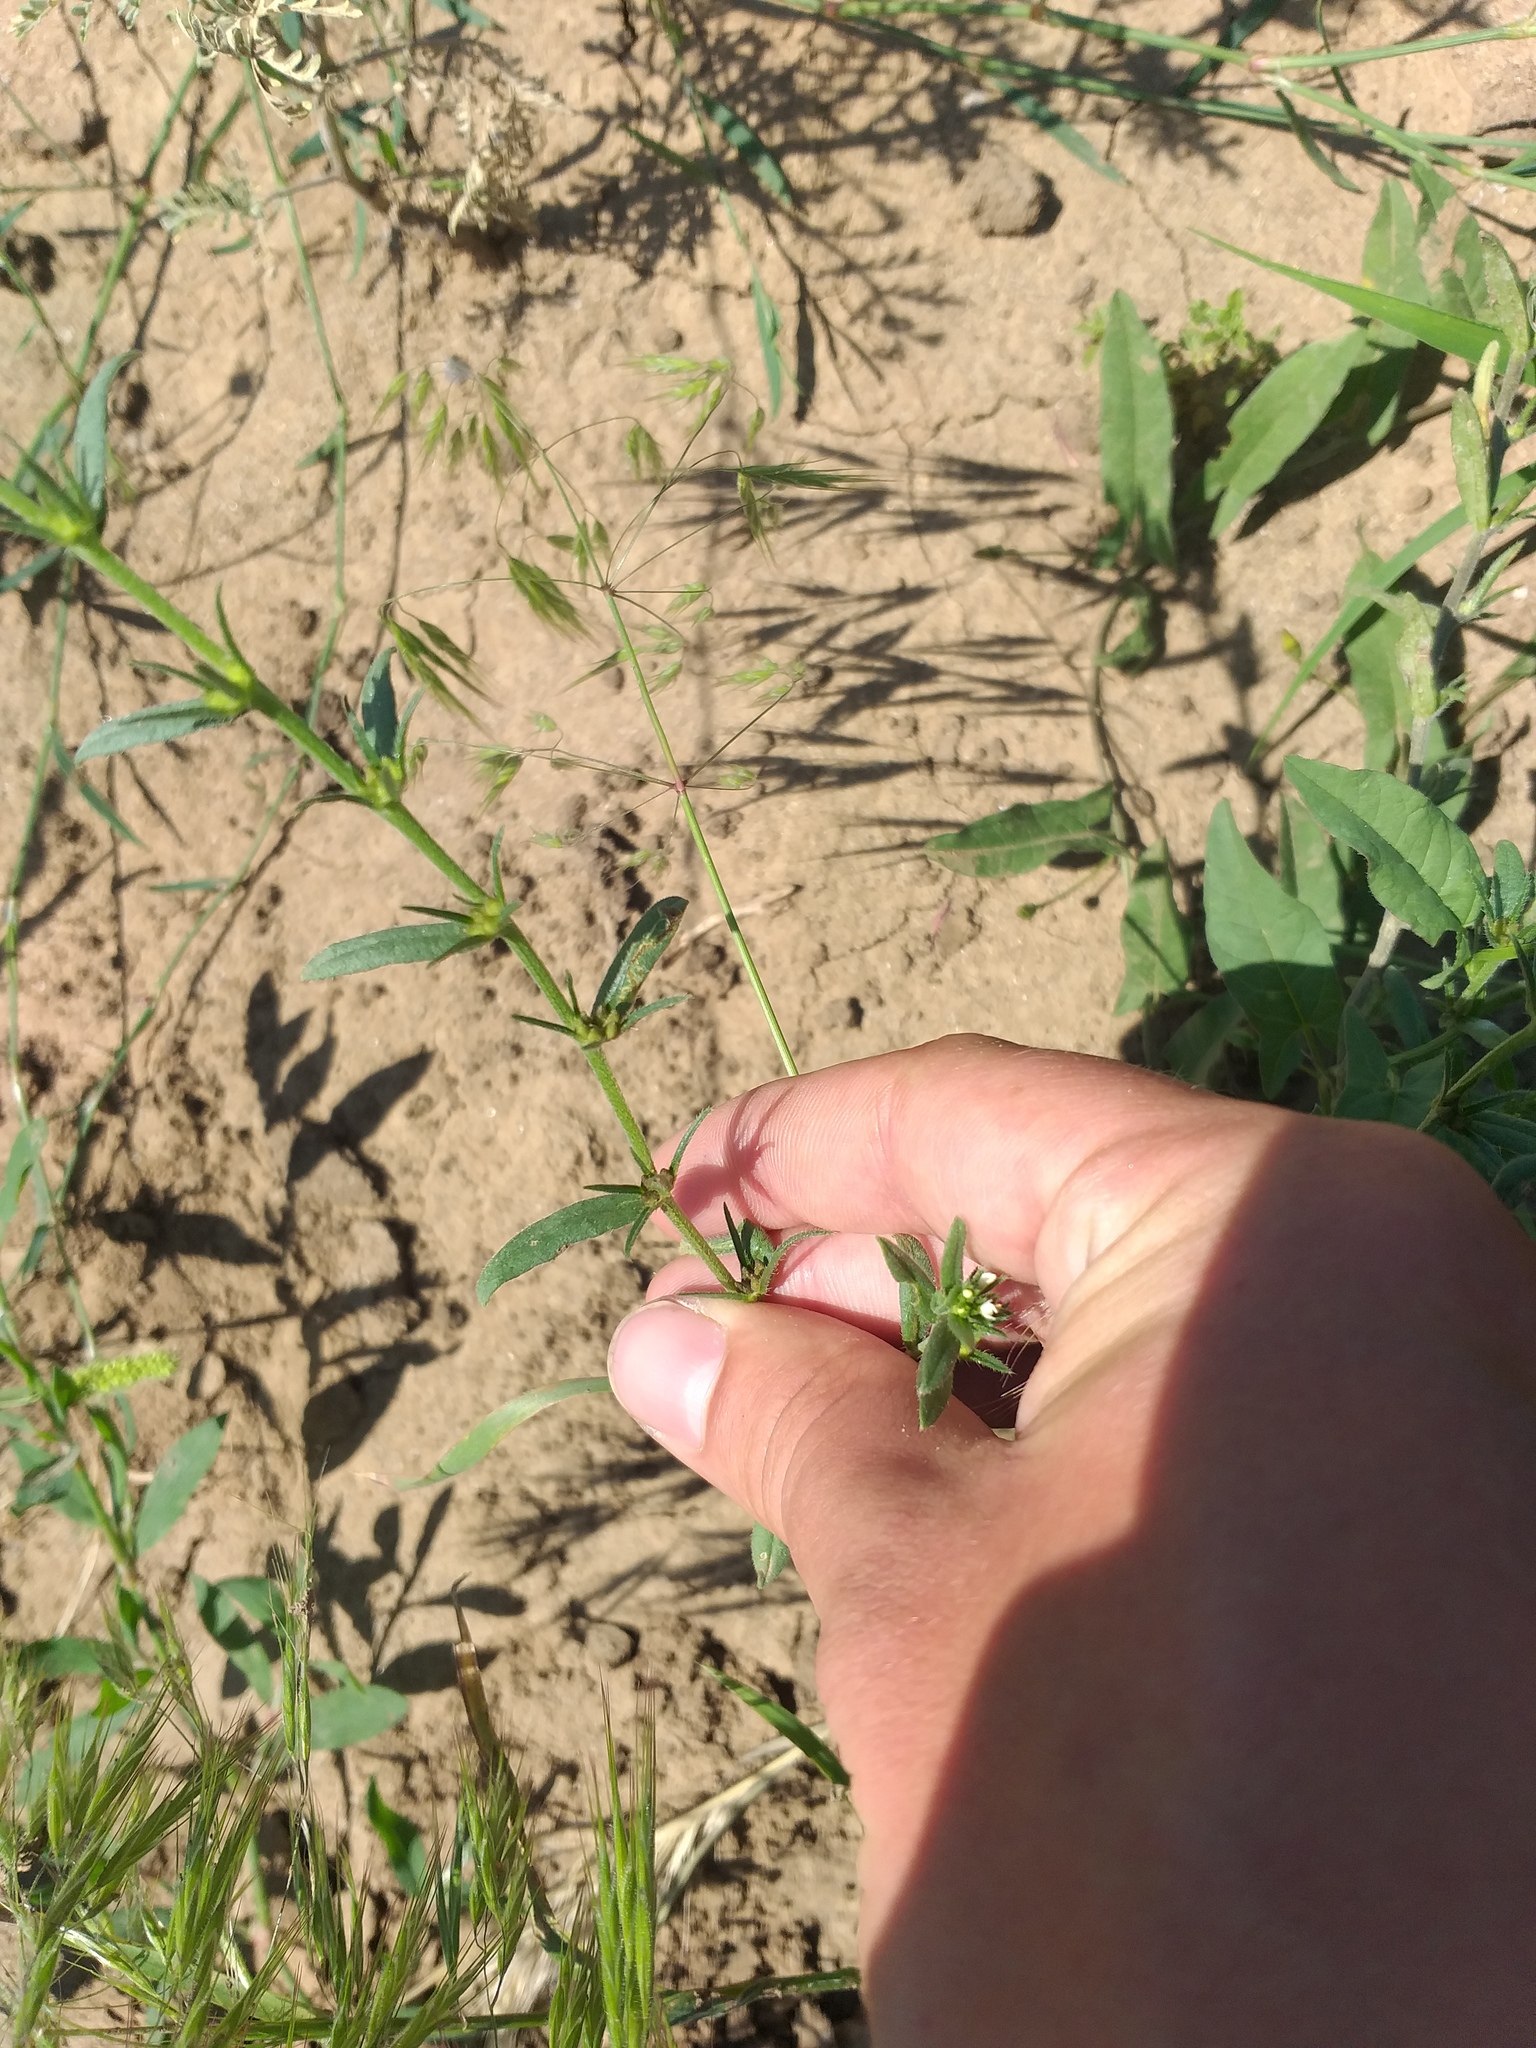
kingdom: Plantae
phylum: Tracheophyta
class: Magnoliopsida
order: Boraginales
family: Boraginaceae
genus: Buglossoides
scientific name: Buglossoides arvensis
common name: Corn gromwell
